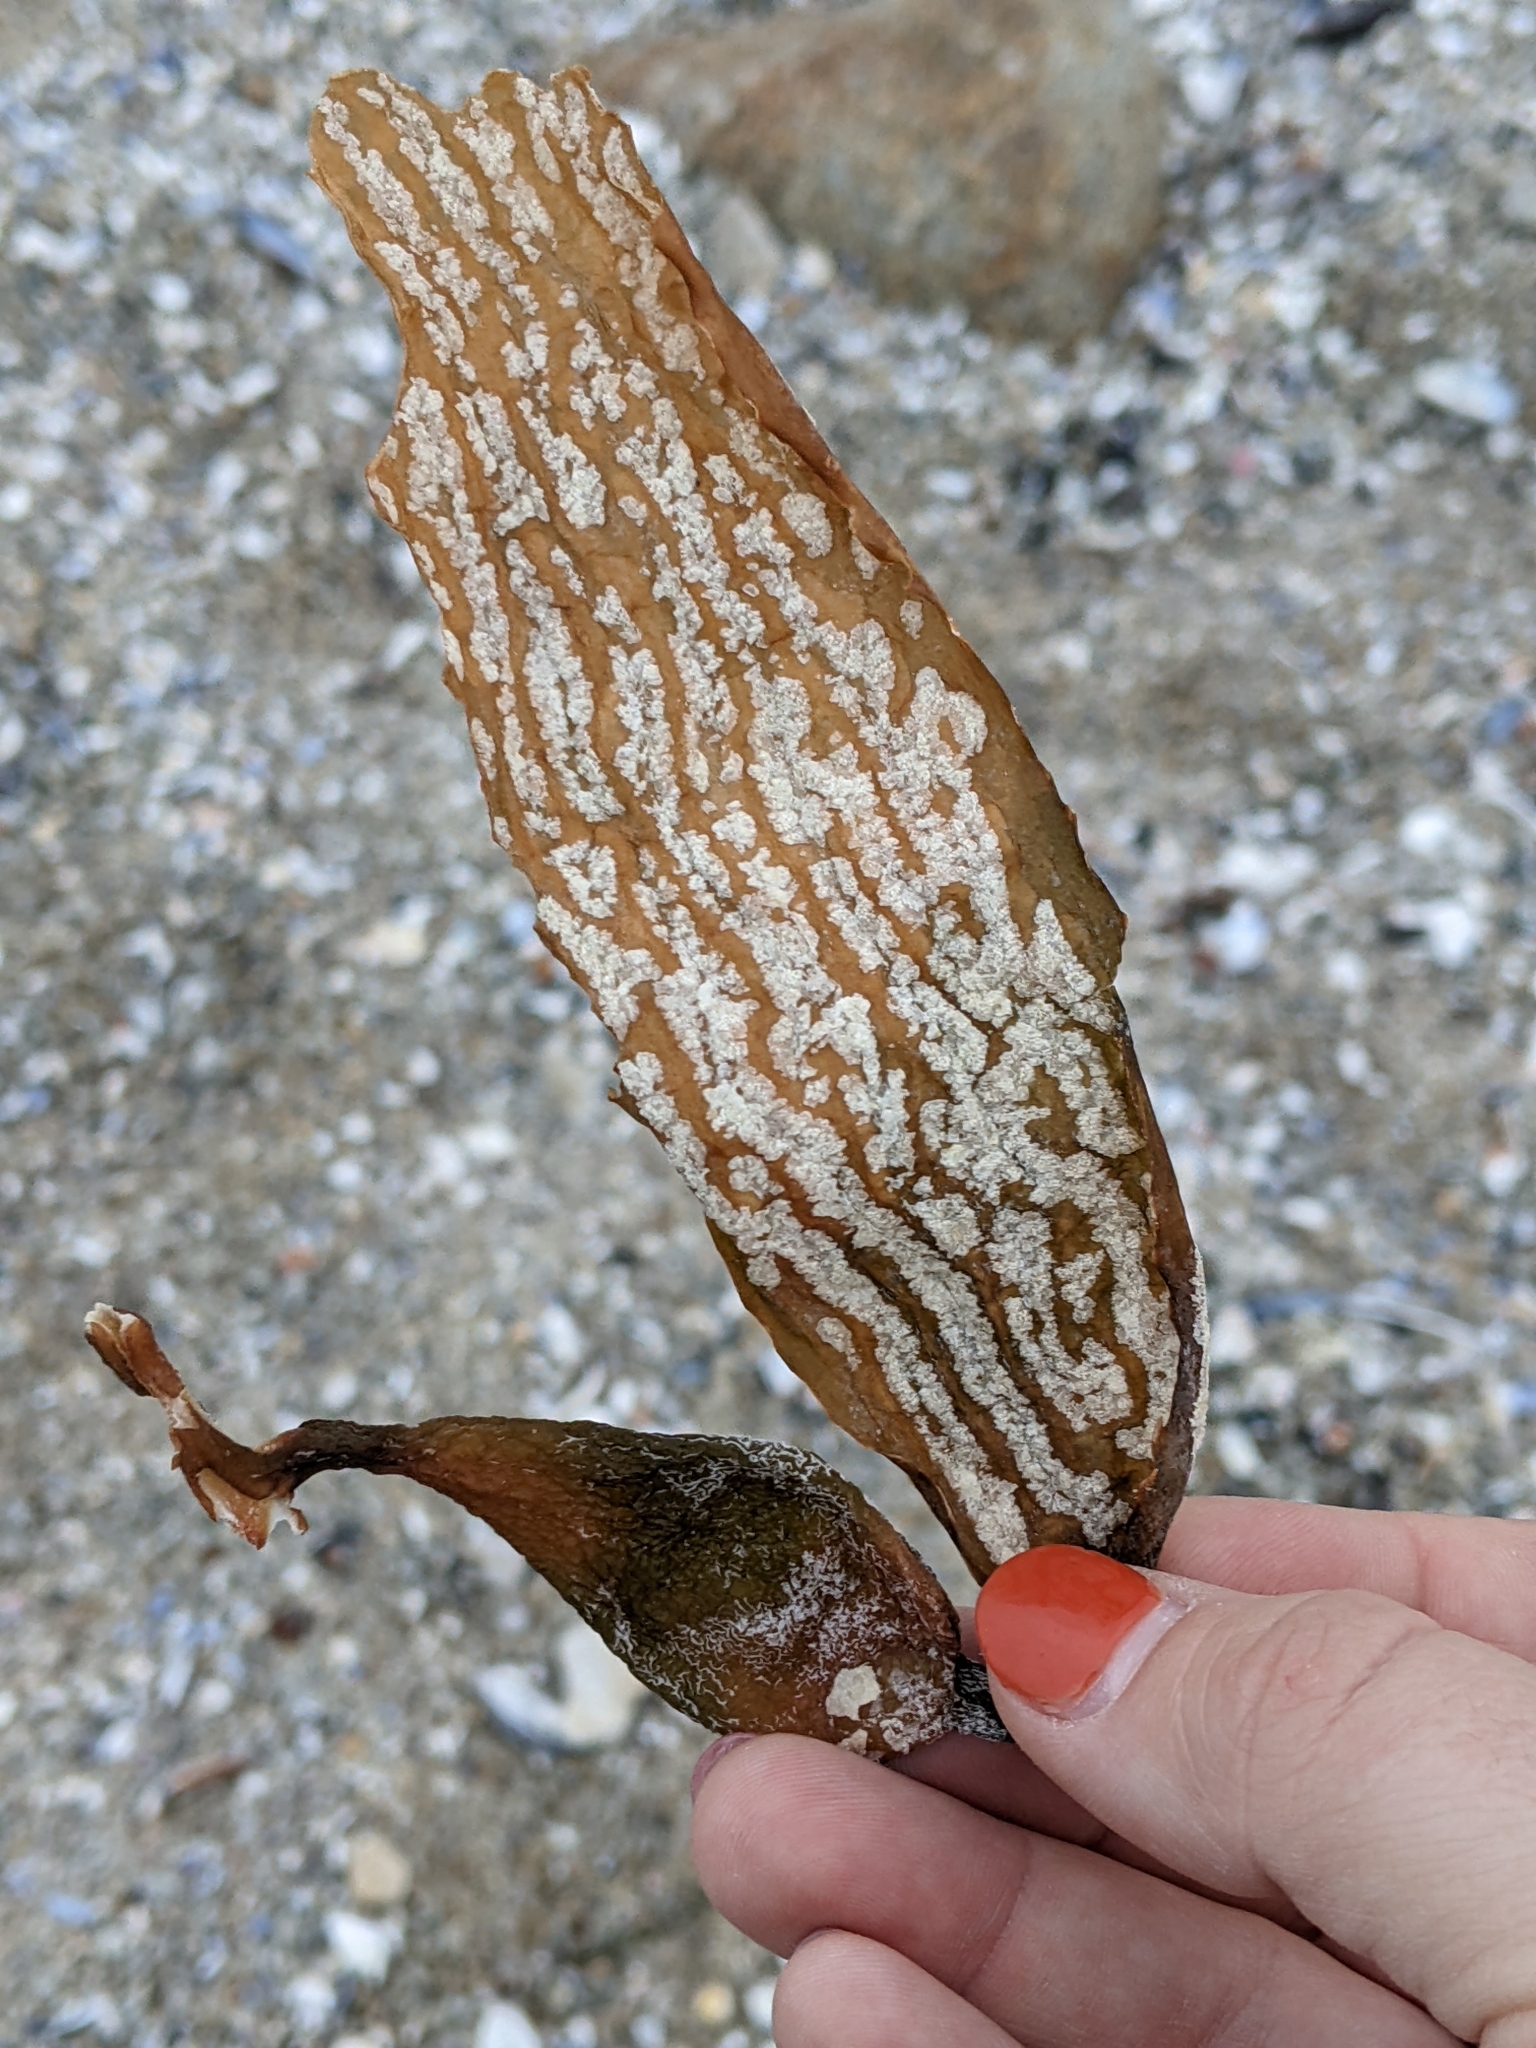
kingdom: Chromista
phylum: Ochrophyta
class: Phaeophyceae
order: Laminariales
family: Laminariaceae
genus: Macrocystis
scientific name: Macrocystis pyrifera
